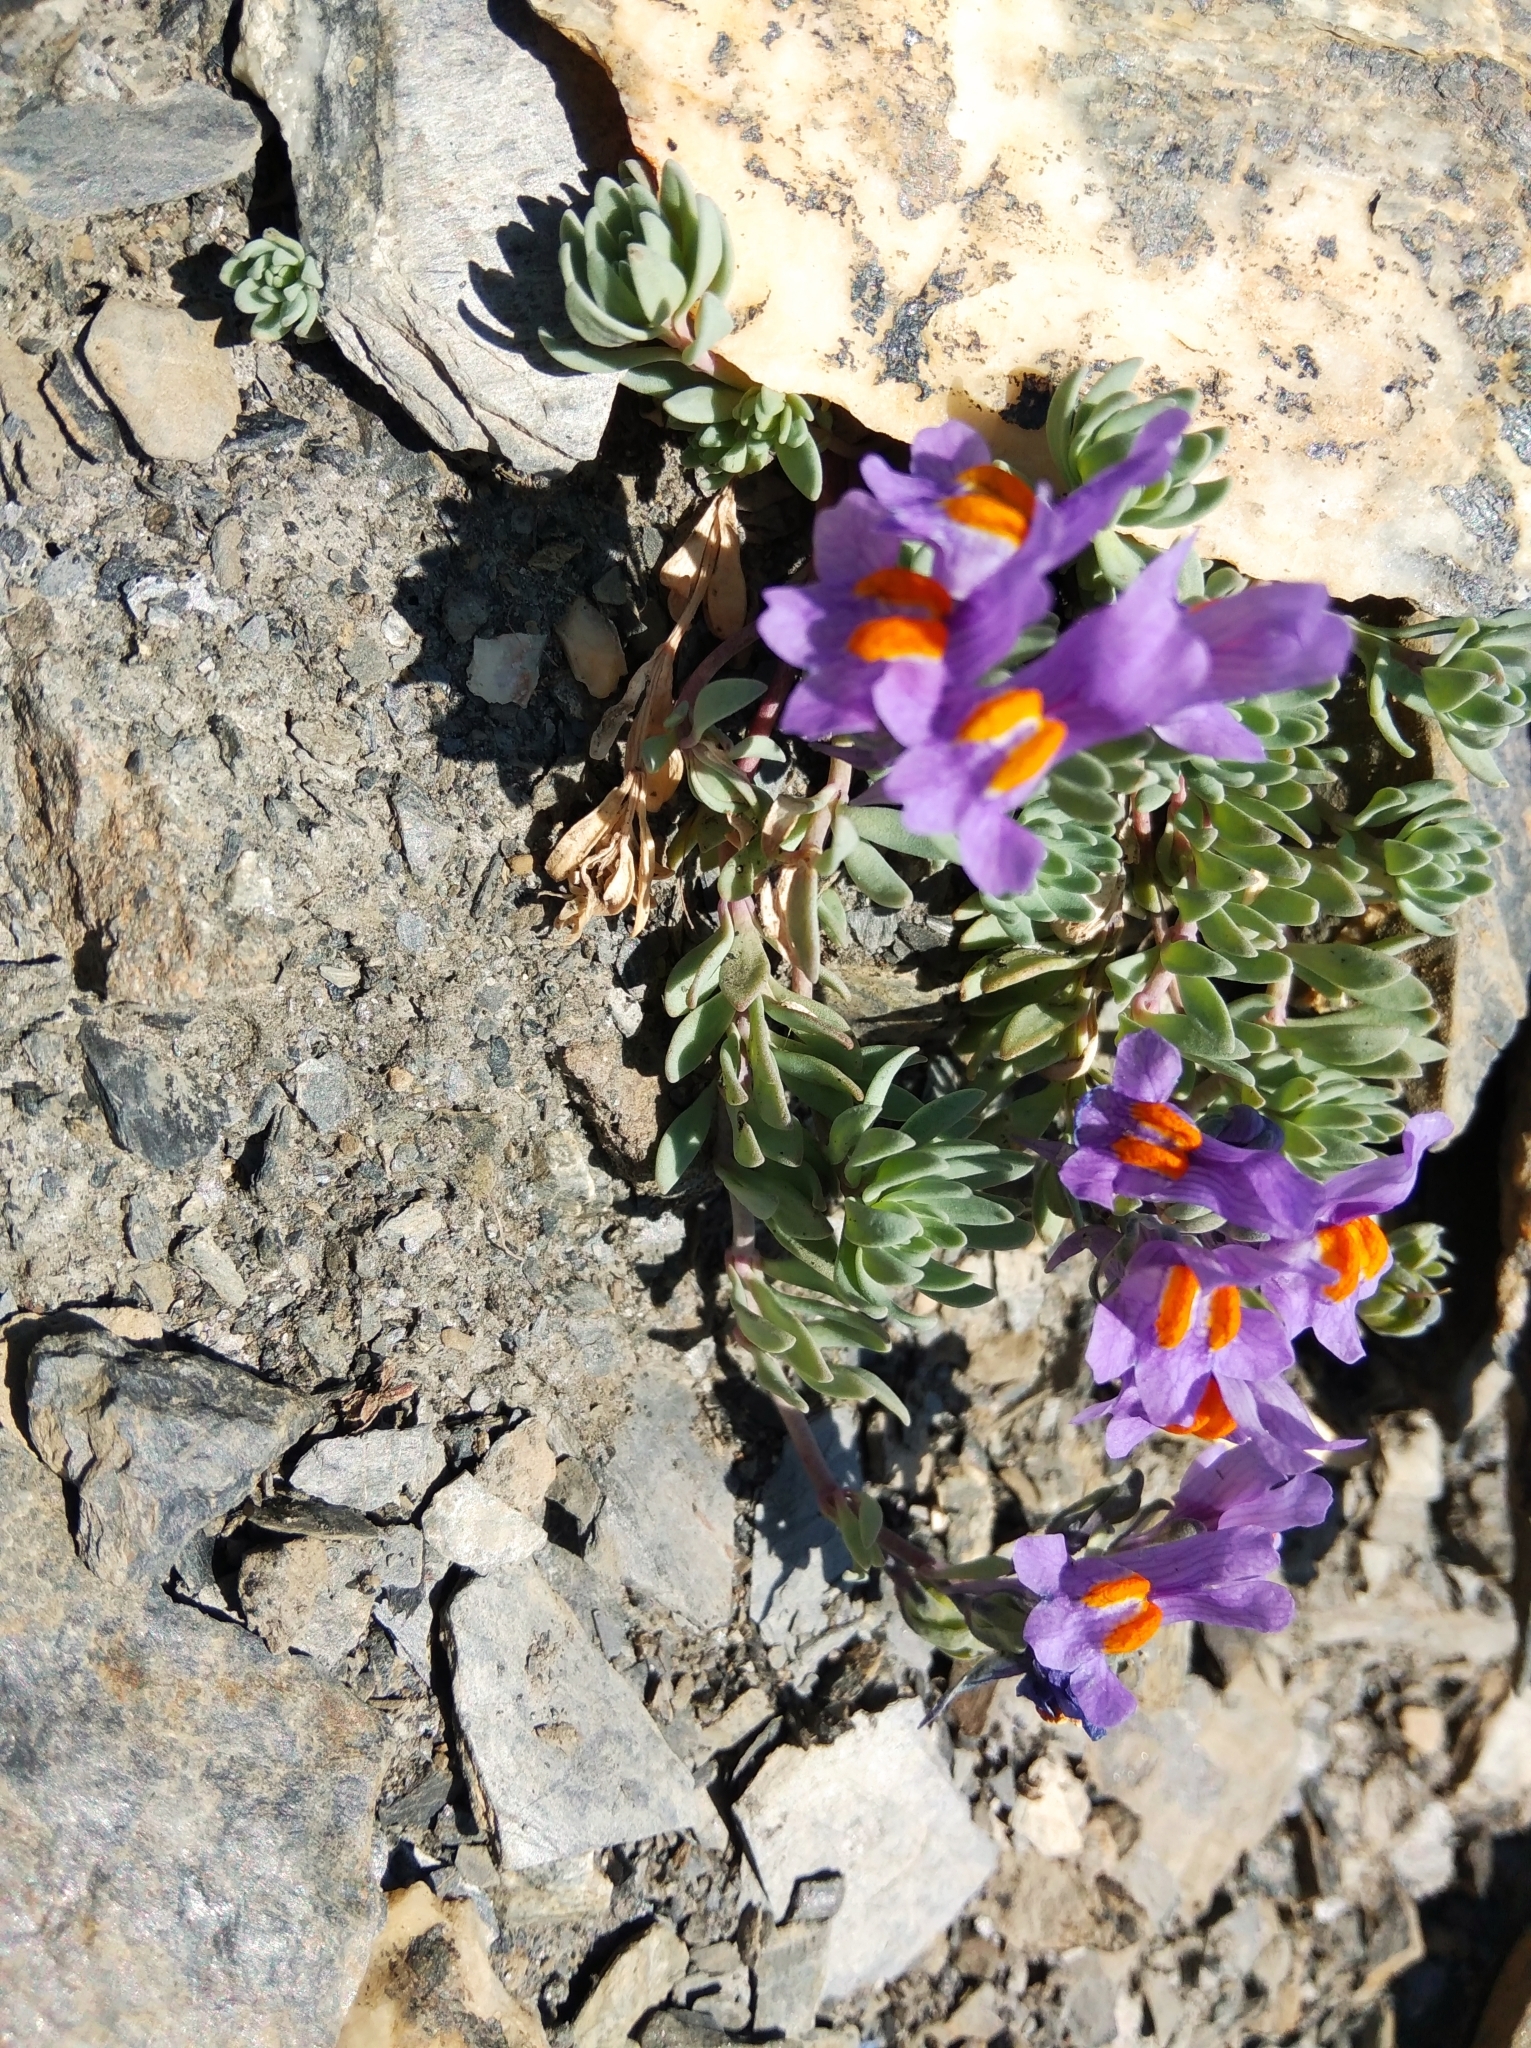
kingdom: Plantae
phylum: Tracheophyta
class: Magnoliopsida
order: Lamiales
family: Plantaginaceae
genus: Linaria
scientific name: Linaria alpina
